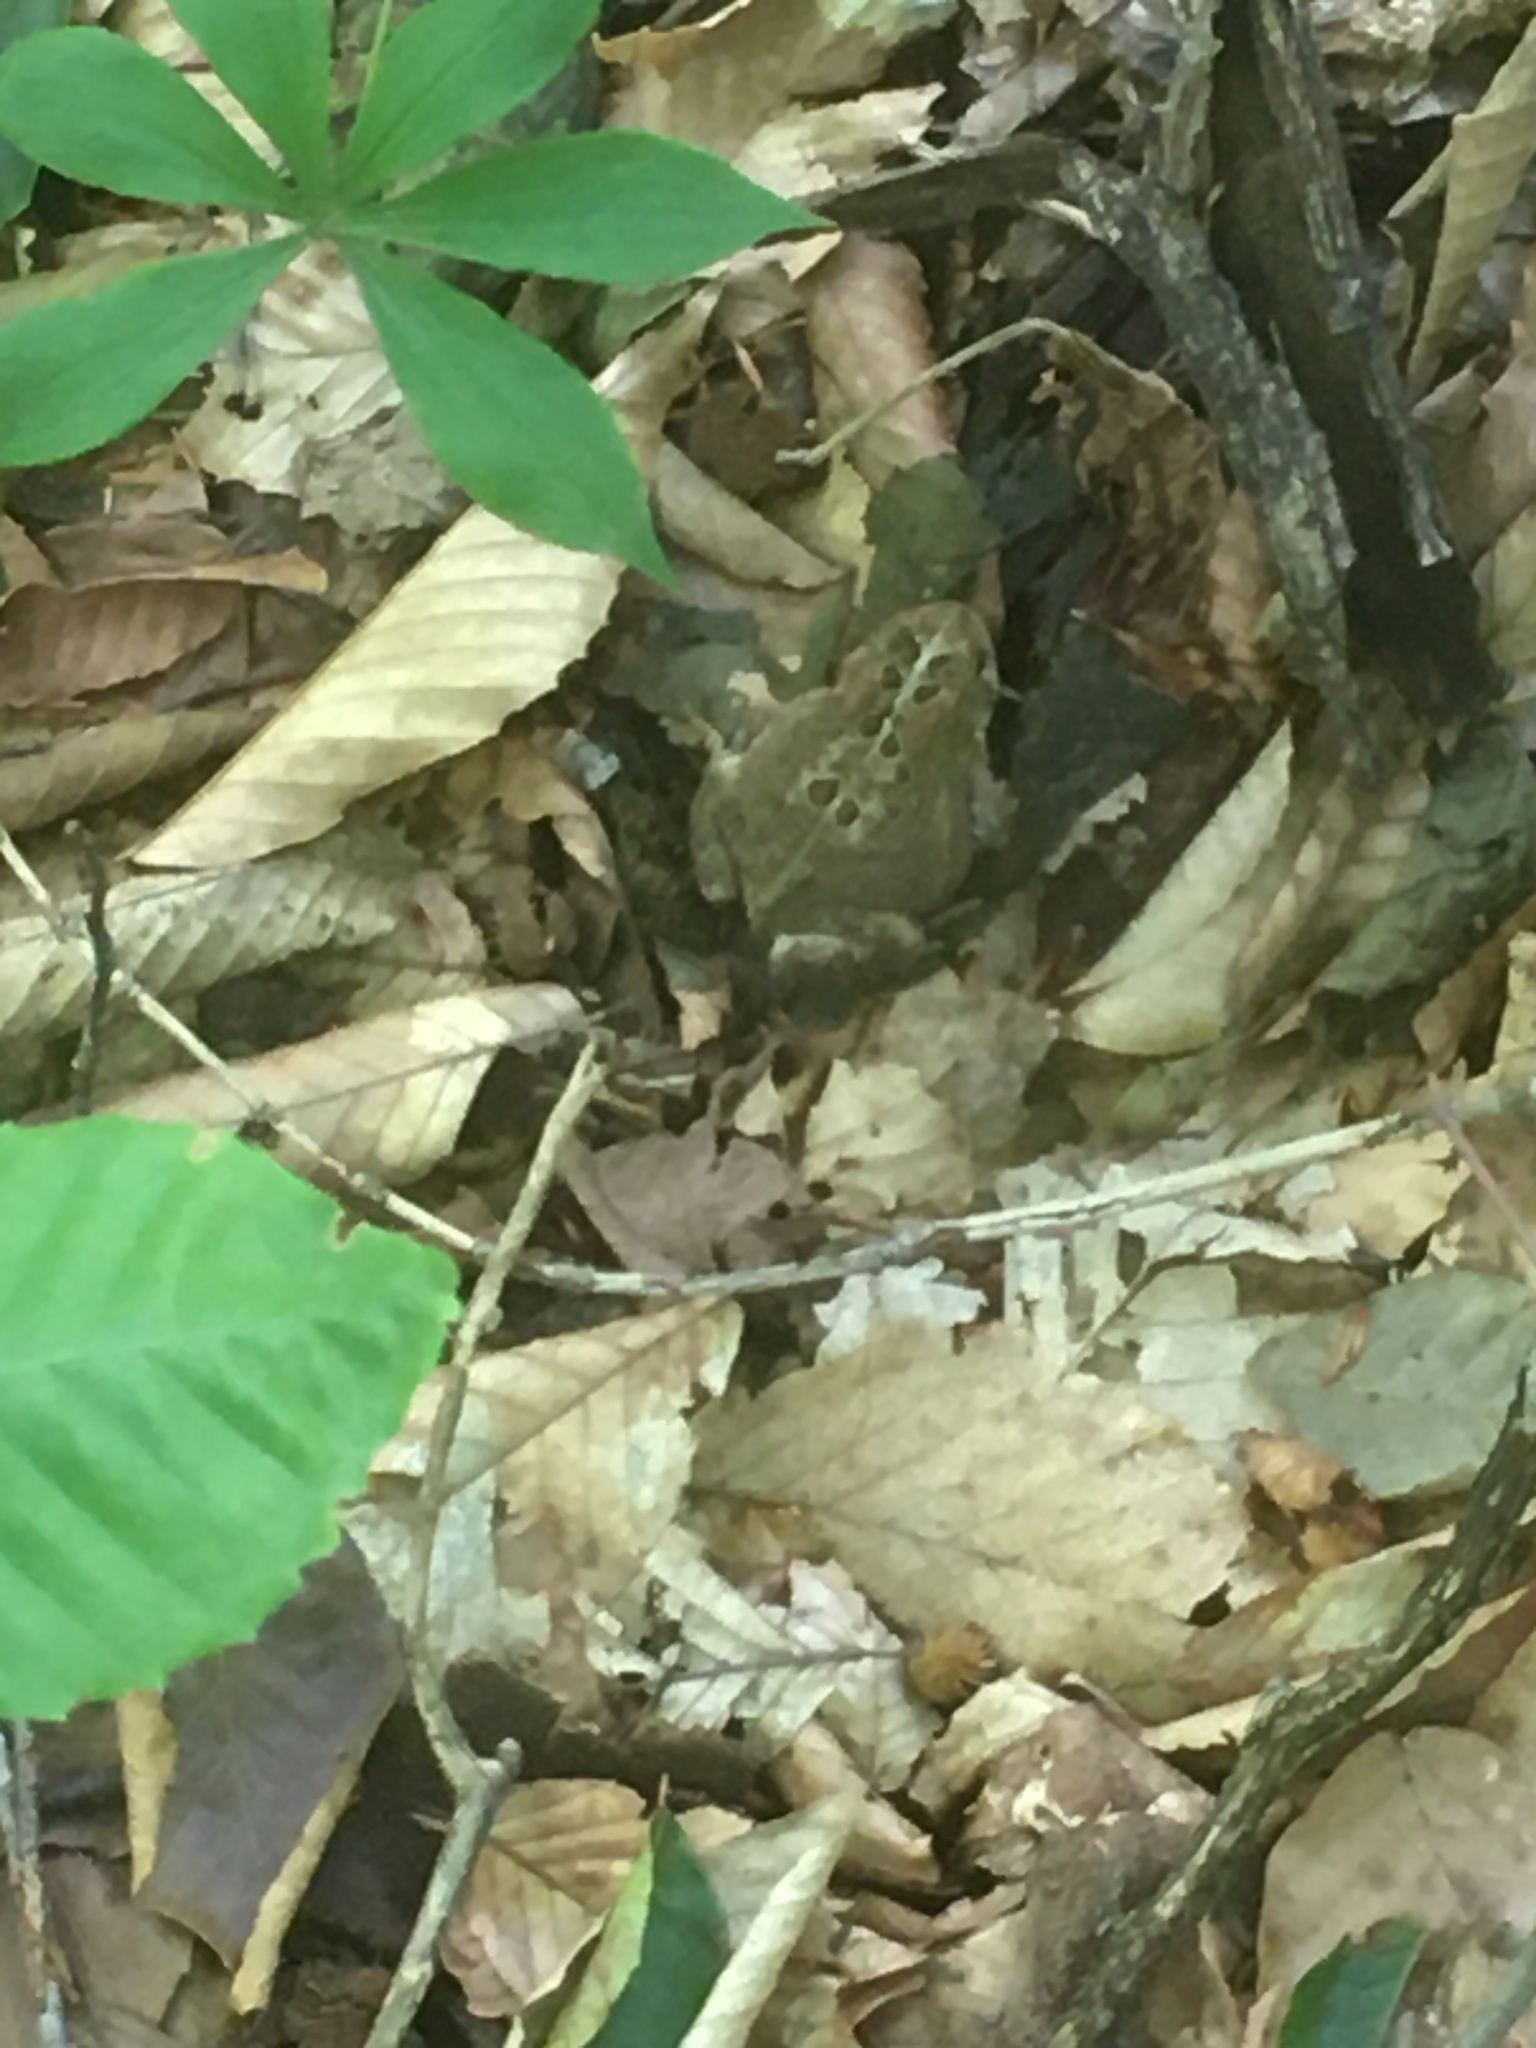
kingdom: Animalia
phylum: Chordata
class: Amphibia
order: Anura
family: Bufonidae
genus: Anaxyrus
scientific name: Anaxyrus americanus
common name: American toad
